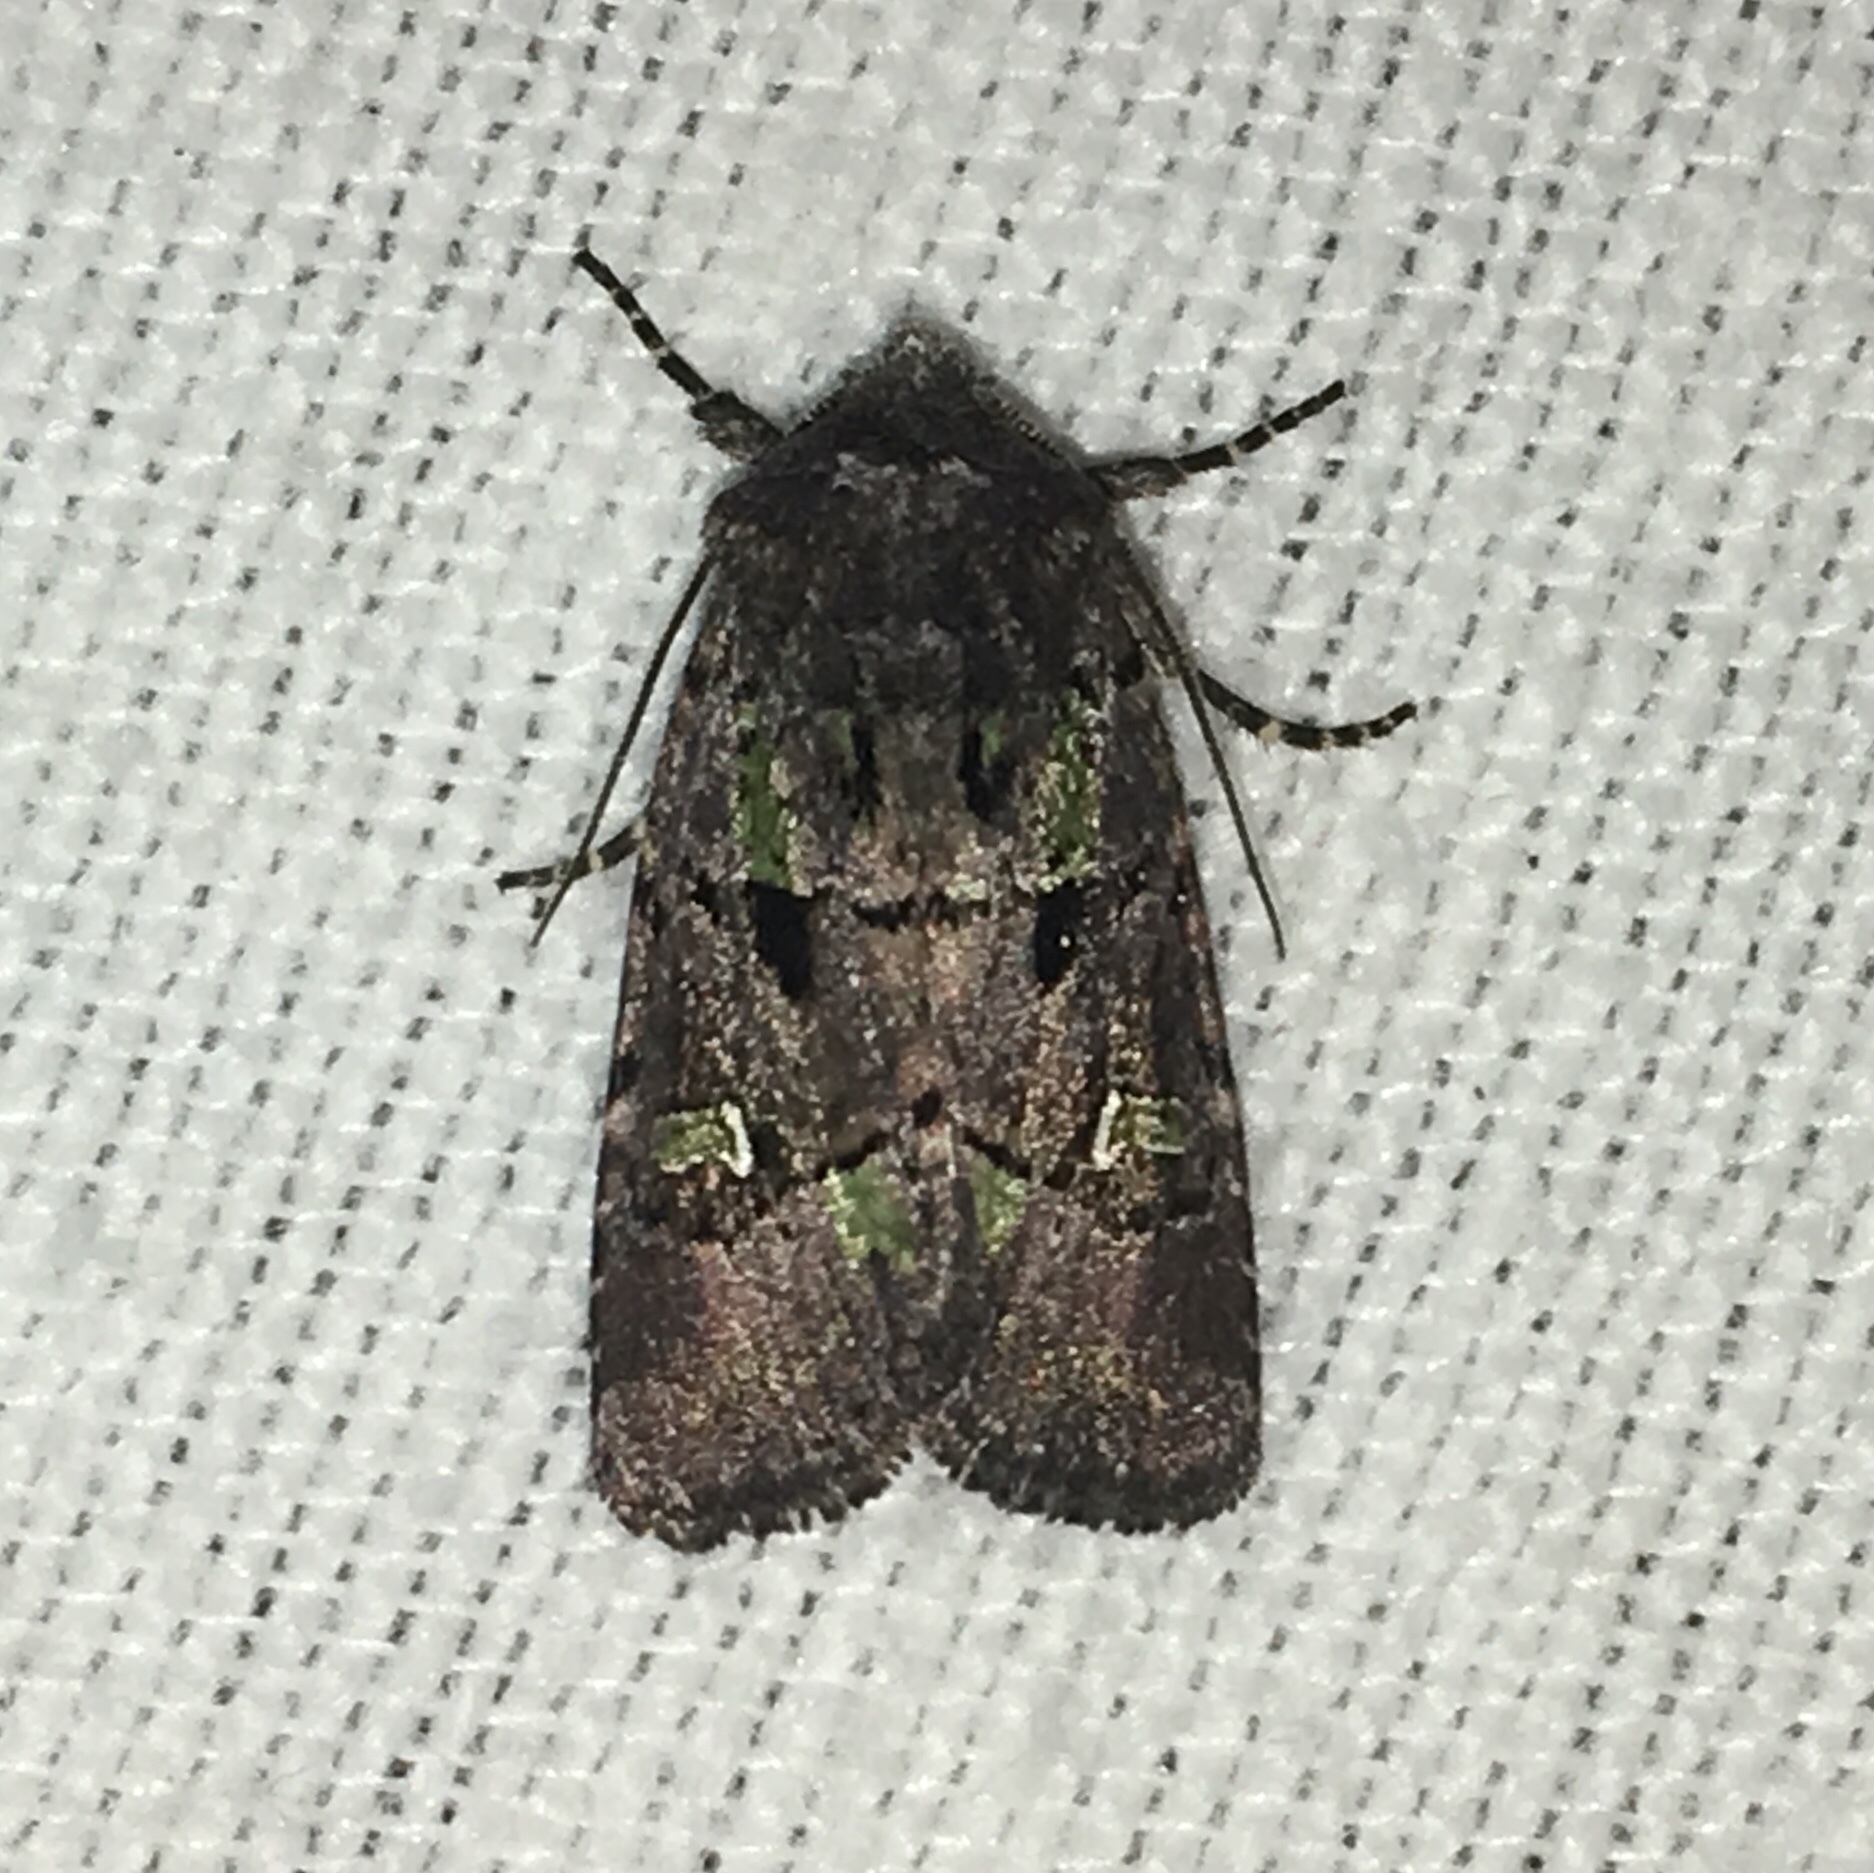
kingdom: Animalia
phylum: Arthropoda
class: Insecta
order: Lepidoptera
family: Noctuidae
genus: Lacinipolia
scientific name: Lacinipolia renigera
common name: Kidney-spotted minor
